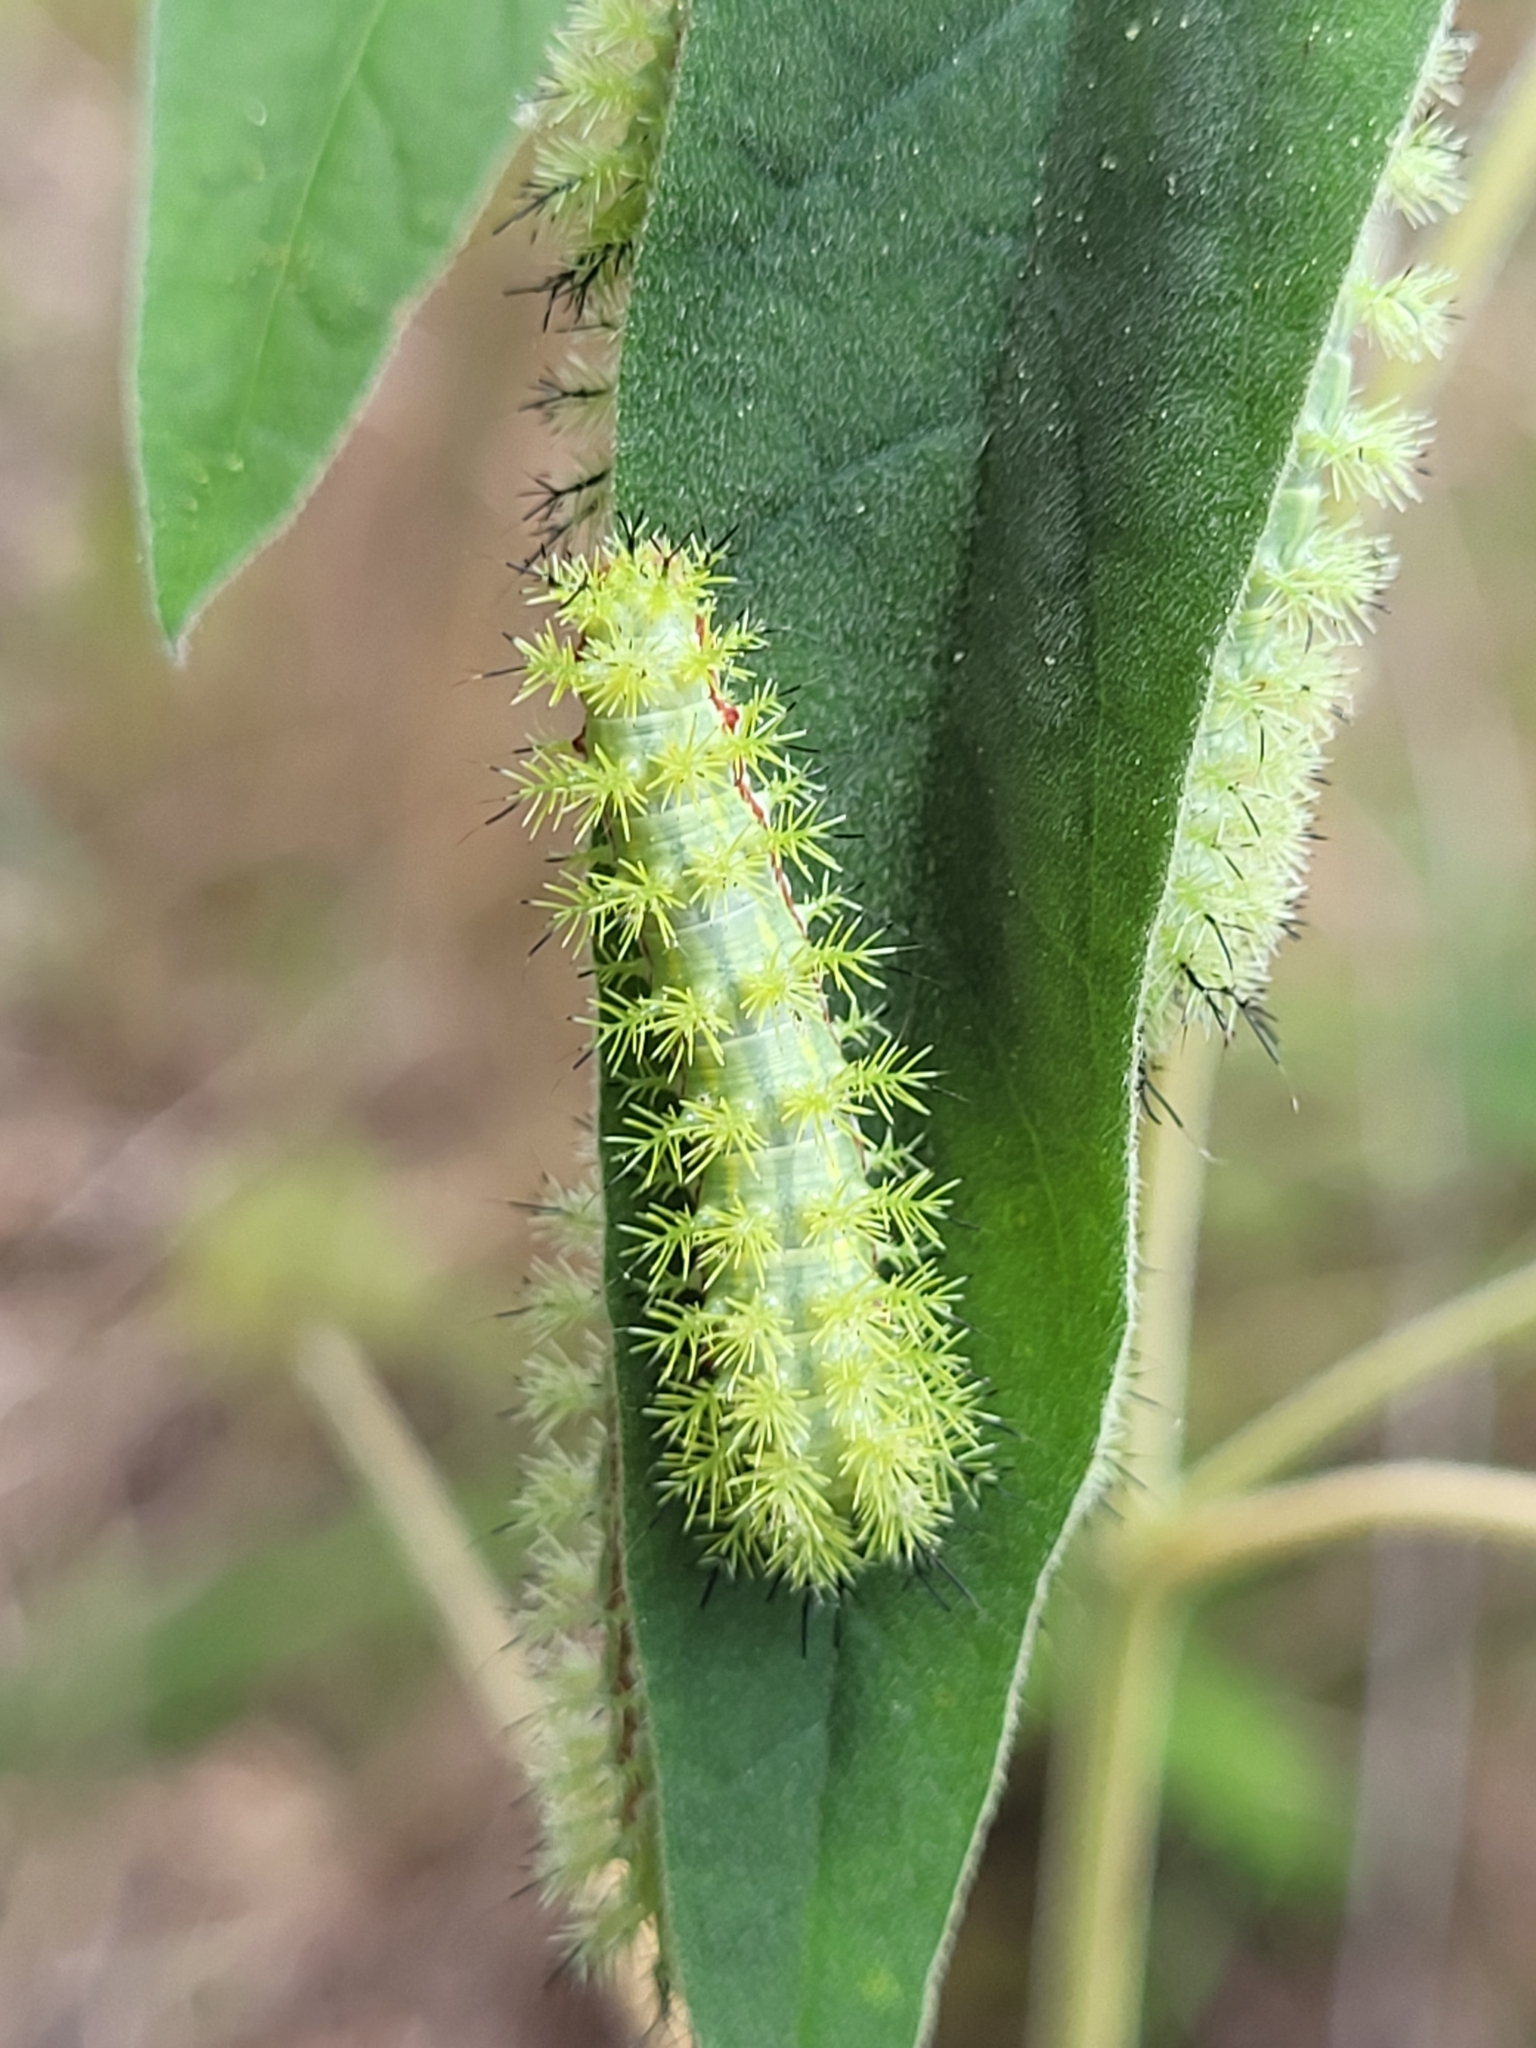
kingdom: Animalia
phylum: Arthropoda
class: Insecta
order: Lepidoptera
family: Saturniidae
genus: Automeris
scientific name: Automeris io
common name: Io moth
